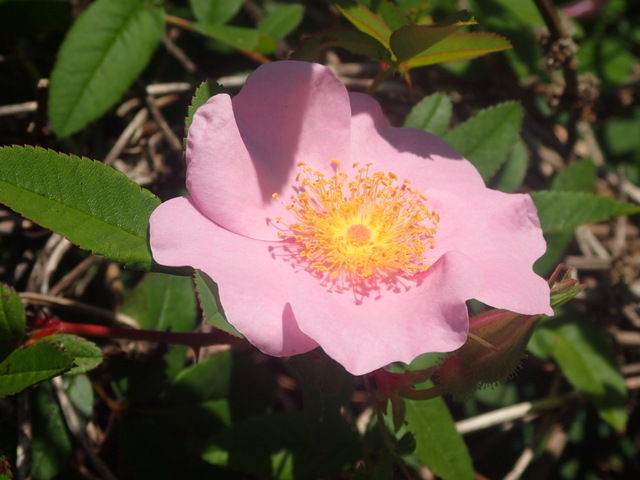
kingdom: Plantae
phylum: Tracheophyta
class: Magnoliopsida
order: Rosales
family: Rosaceae
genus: Rosa
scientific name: Rosa palustris
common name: Swamp rose
